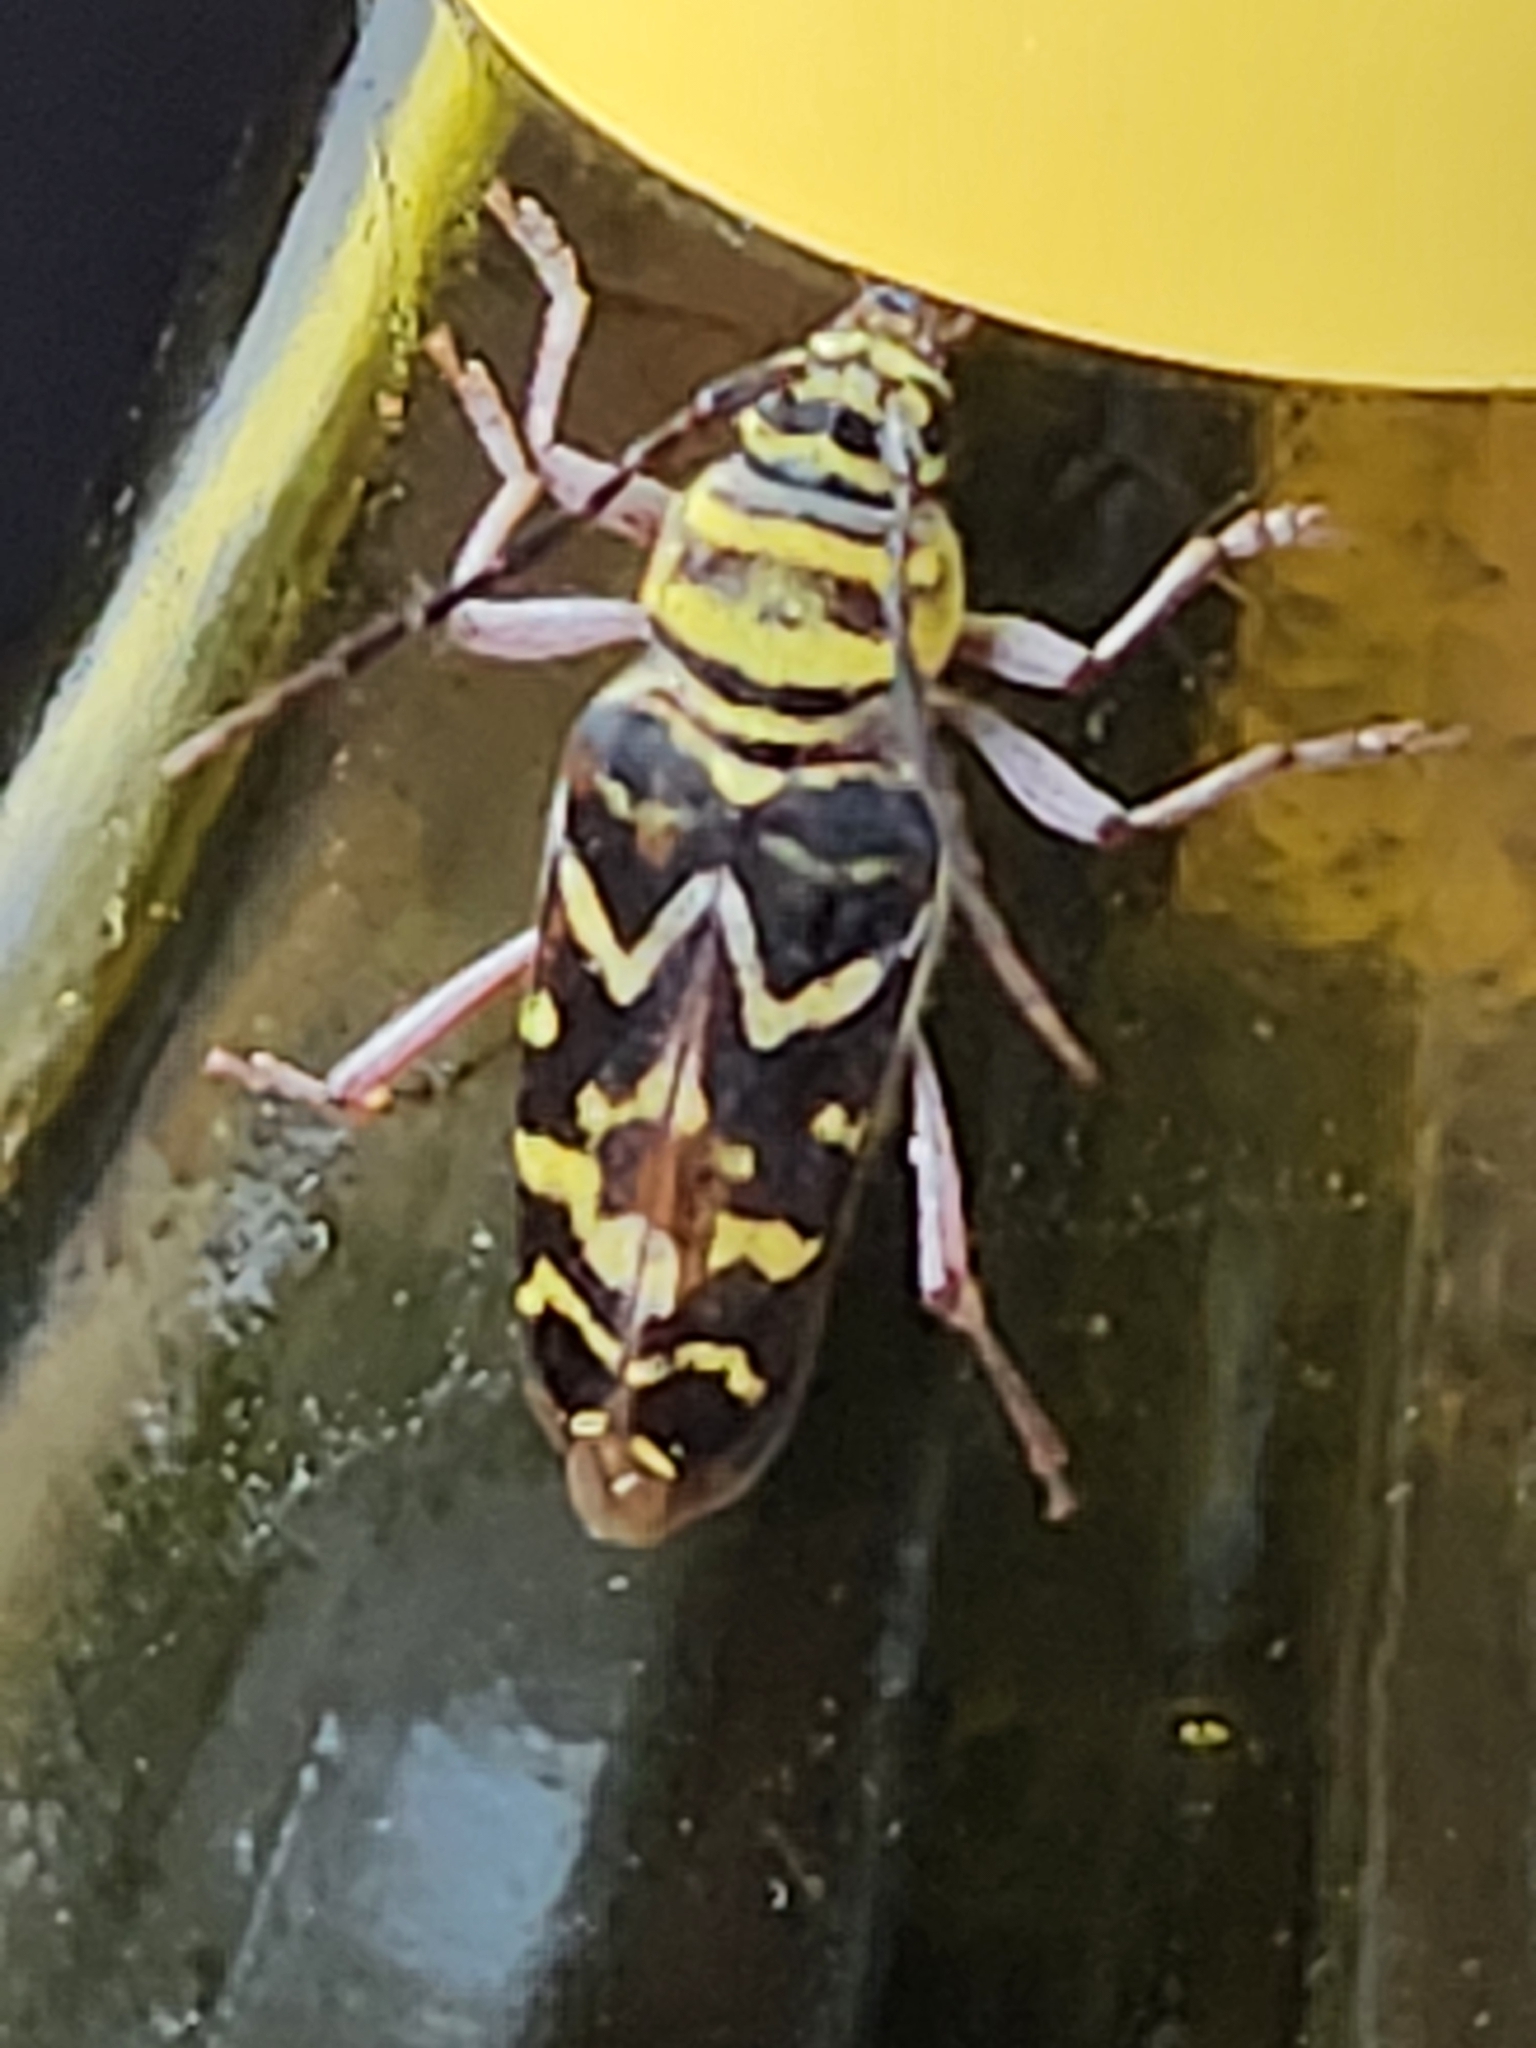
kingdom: Animalia
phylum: Arthropoda
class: Insecta
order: Coleoptera
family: Cerambycidae
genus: Megacyllene
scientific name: Megacyllene caryae
